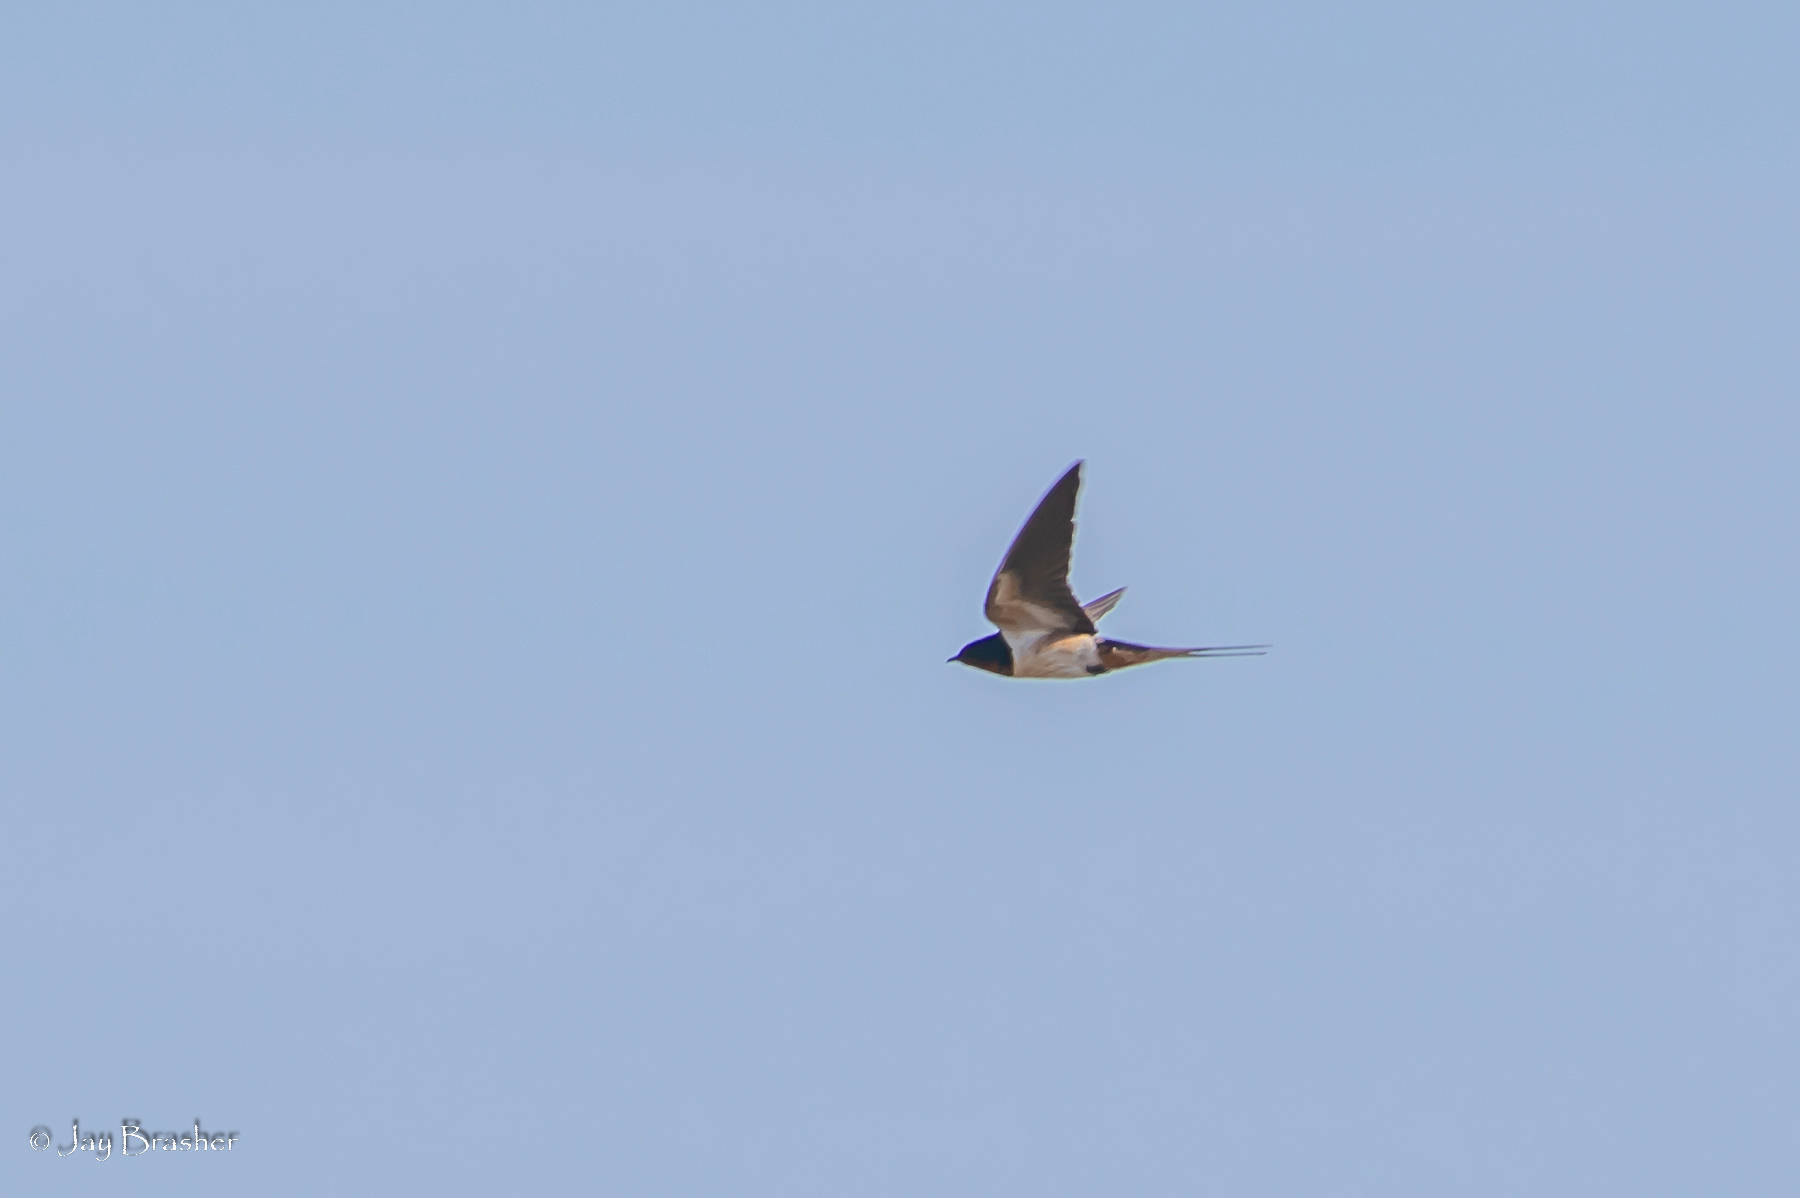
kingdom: Animalia
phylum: Chordata
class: Aves
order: Passeriformes
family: Hirundinidae
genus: Hirundo
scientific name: Hirundo rustica
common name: Barn swallow
